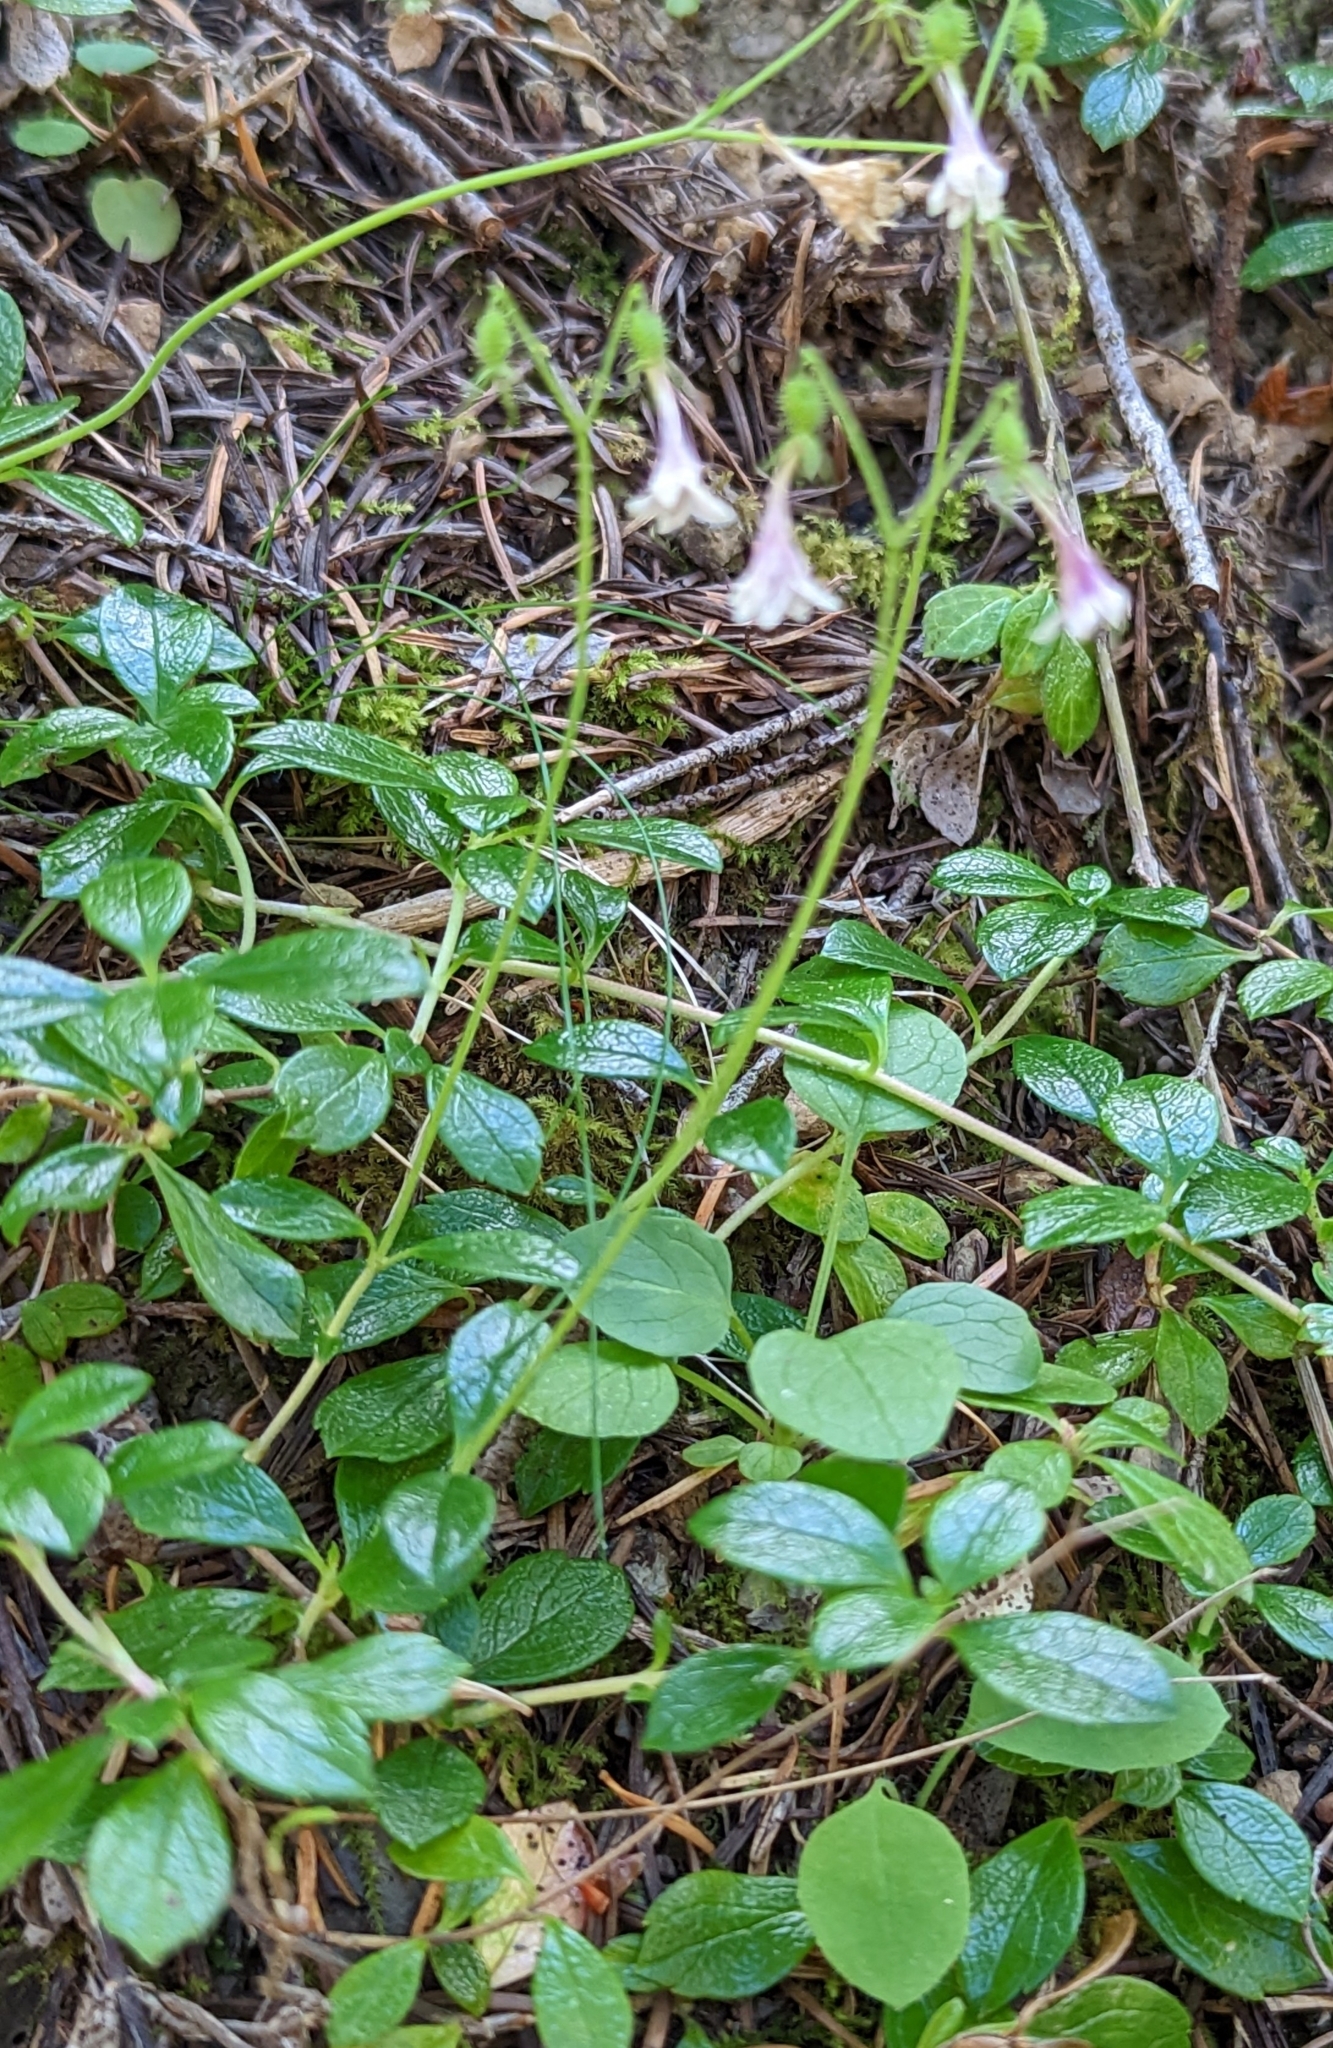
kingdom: Plantae
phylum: Tracheophyta
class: Magnoliopsida
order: Dipsacales
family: Caprifoliaceae
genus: Linnaea
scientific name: Linnaea borealis
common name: Twinflower
